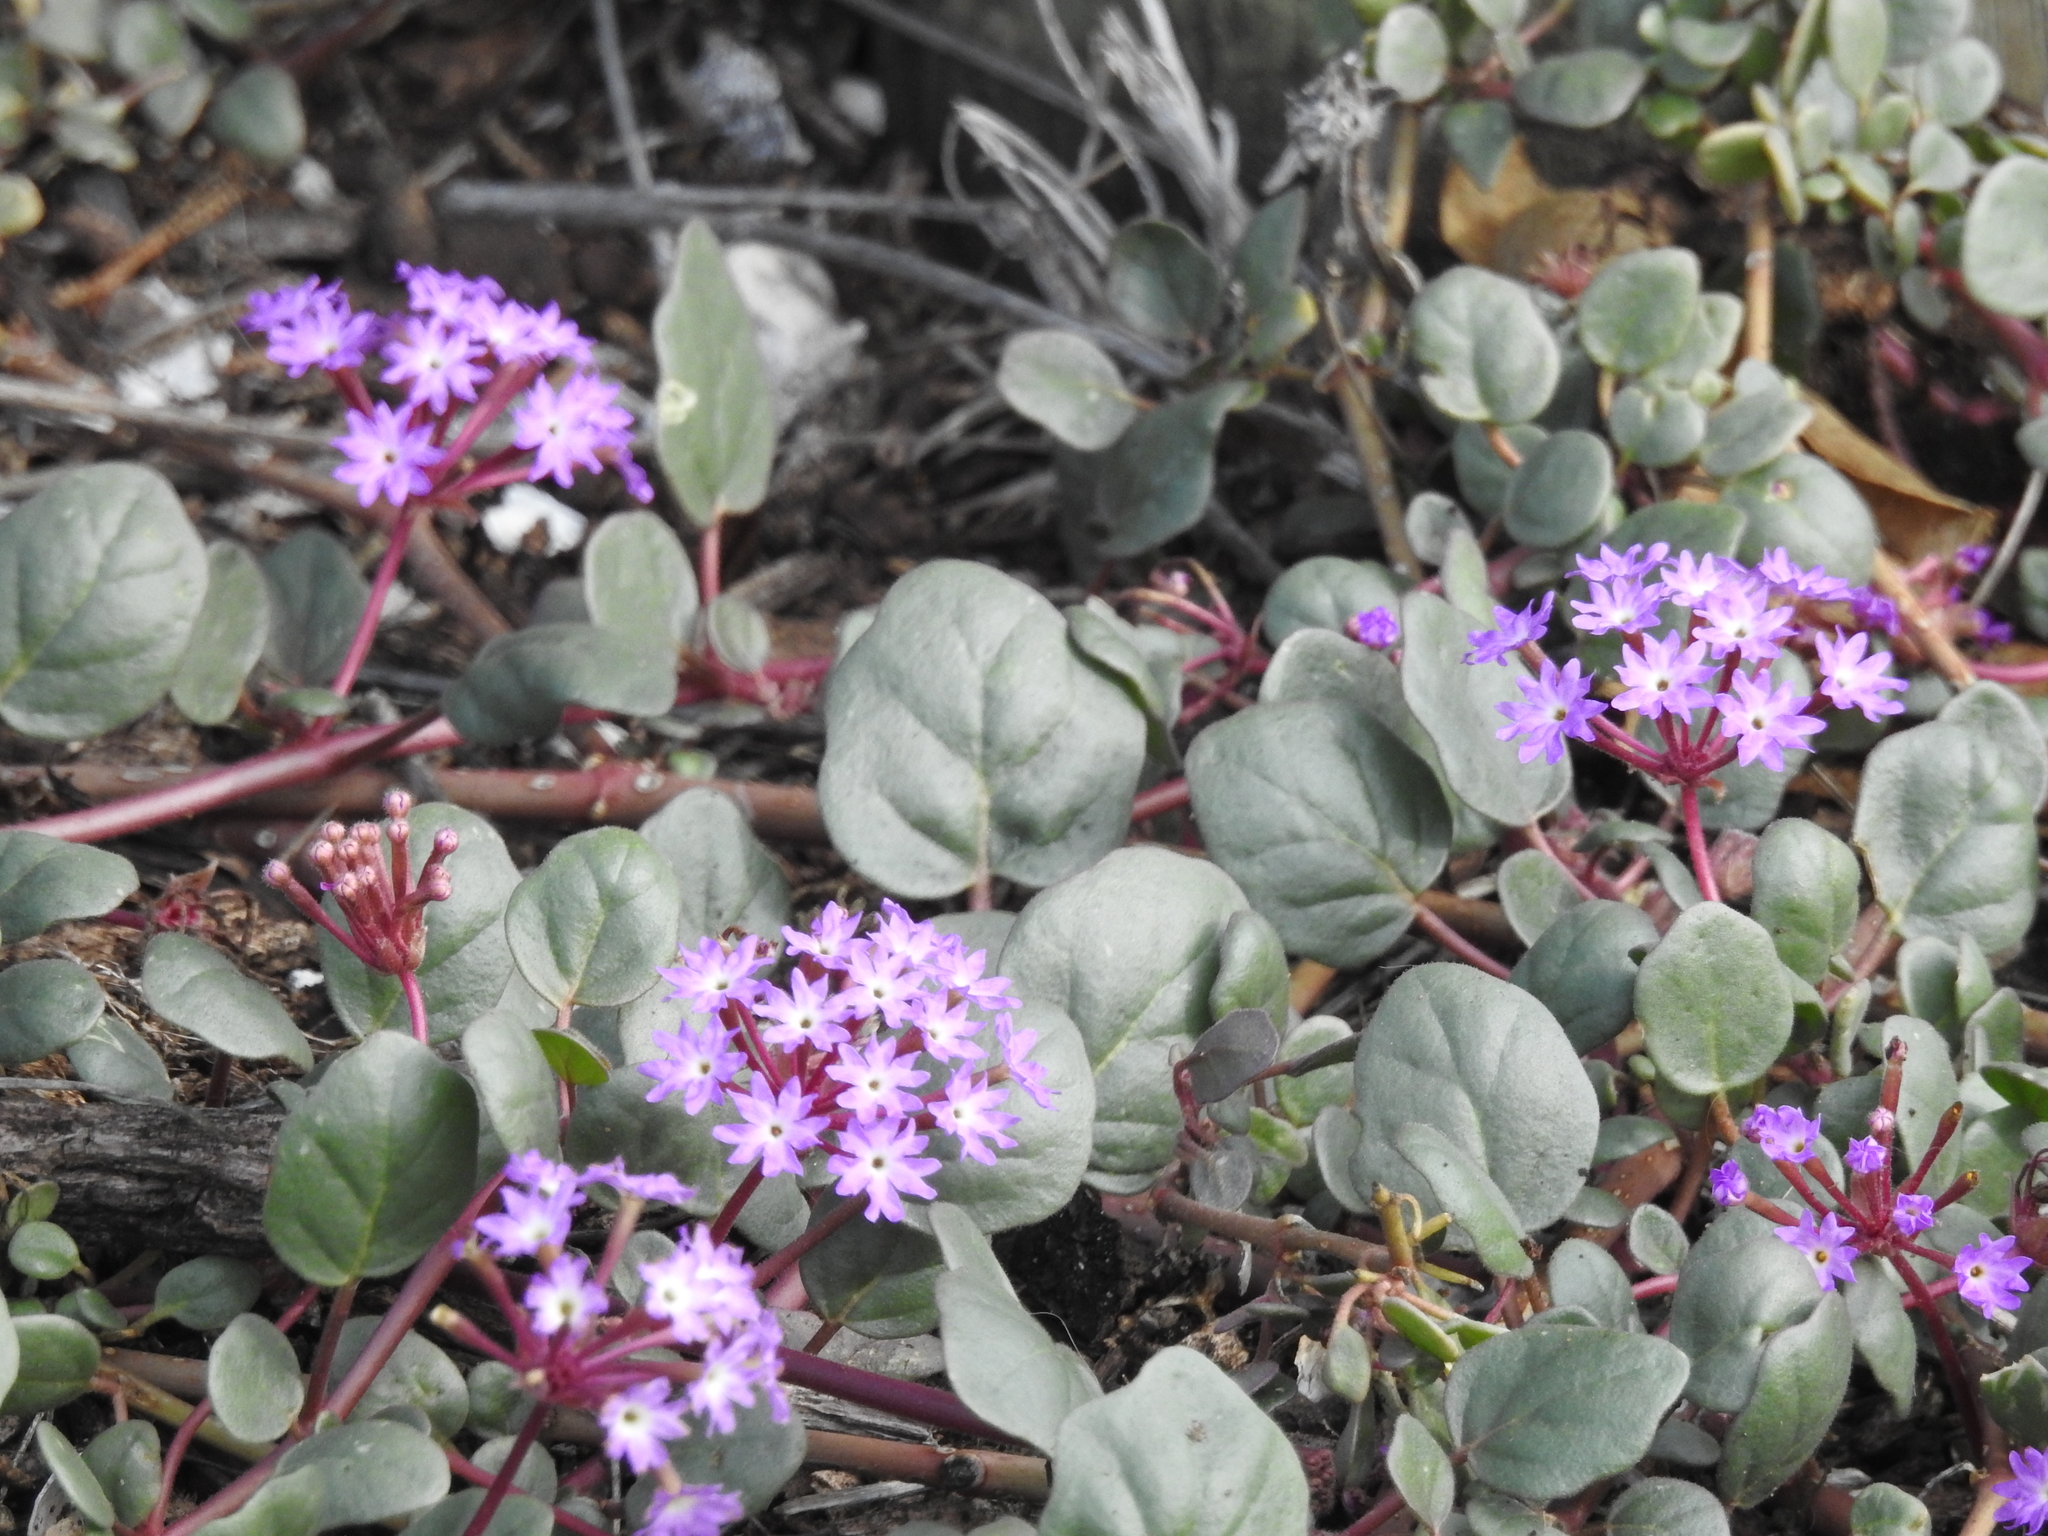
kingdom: Plantae
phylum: Tracheophyta
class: Magnoliopsida
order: Caryophyllales
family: Nyctaginaceae
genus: Abronia
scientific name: Abronia umbellata
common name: Sand-verbena
